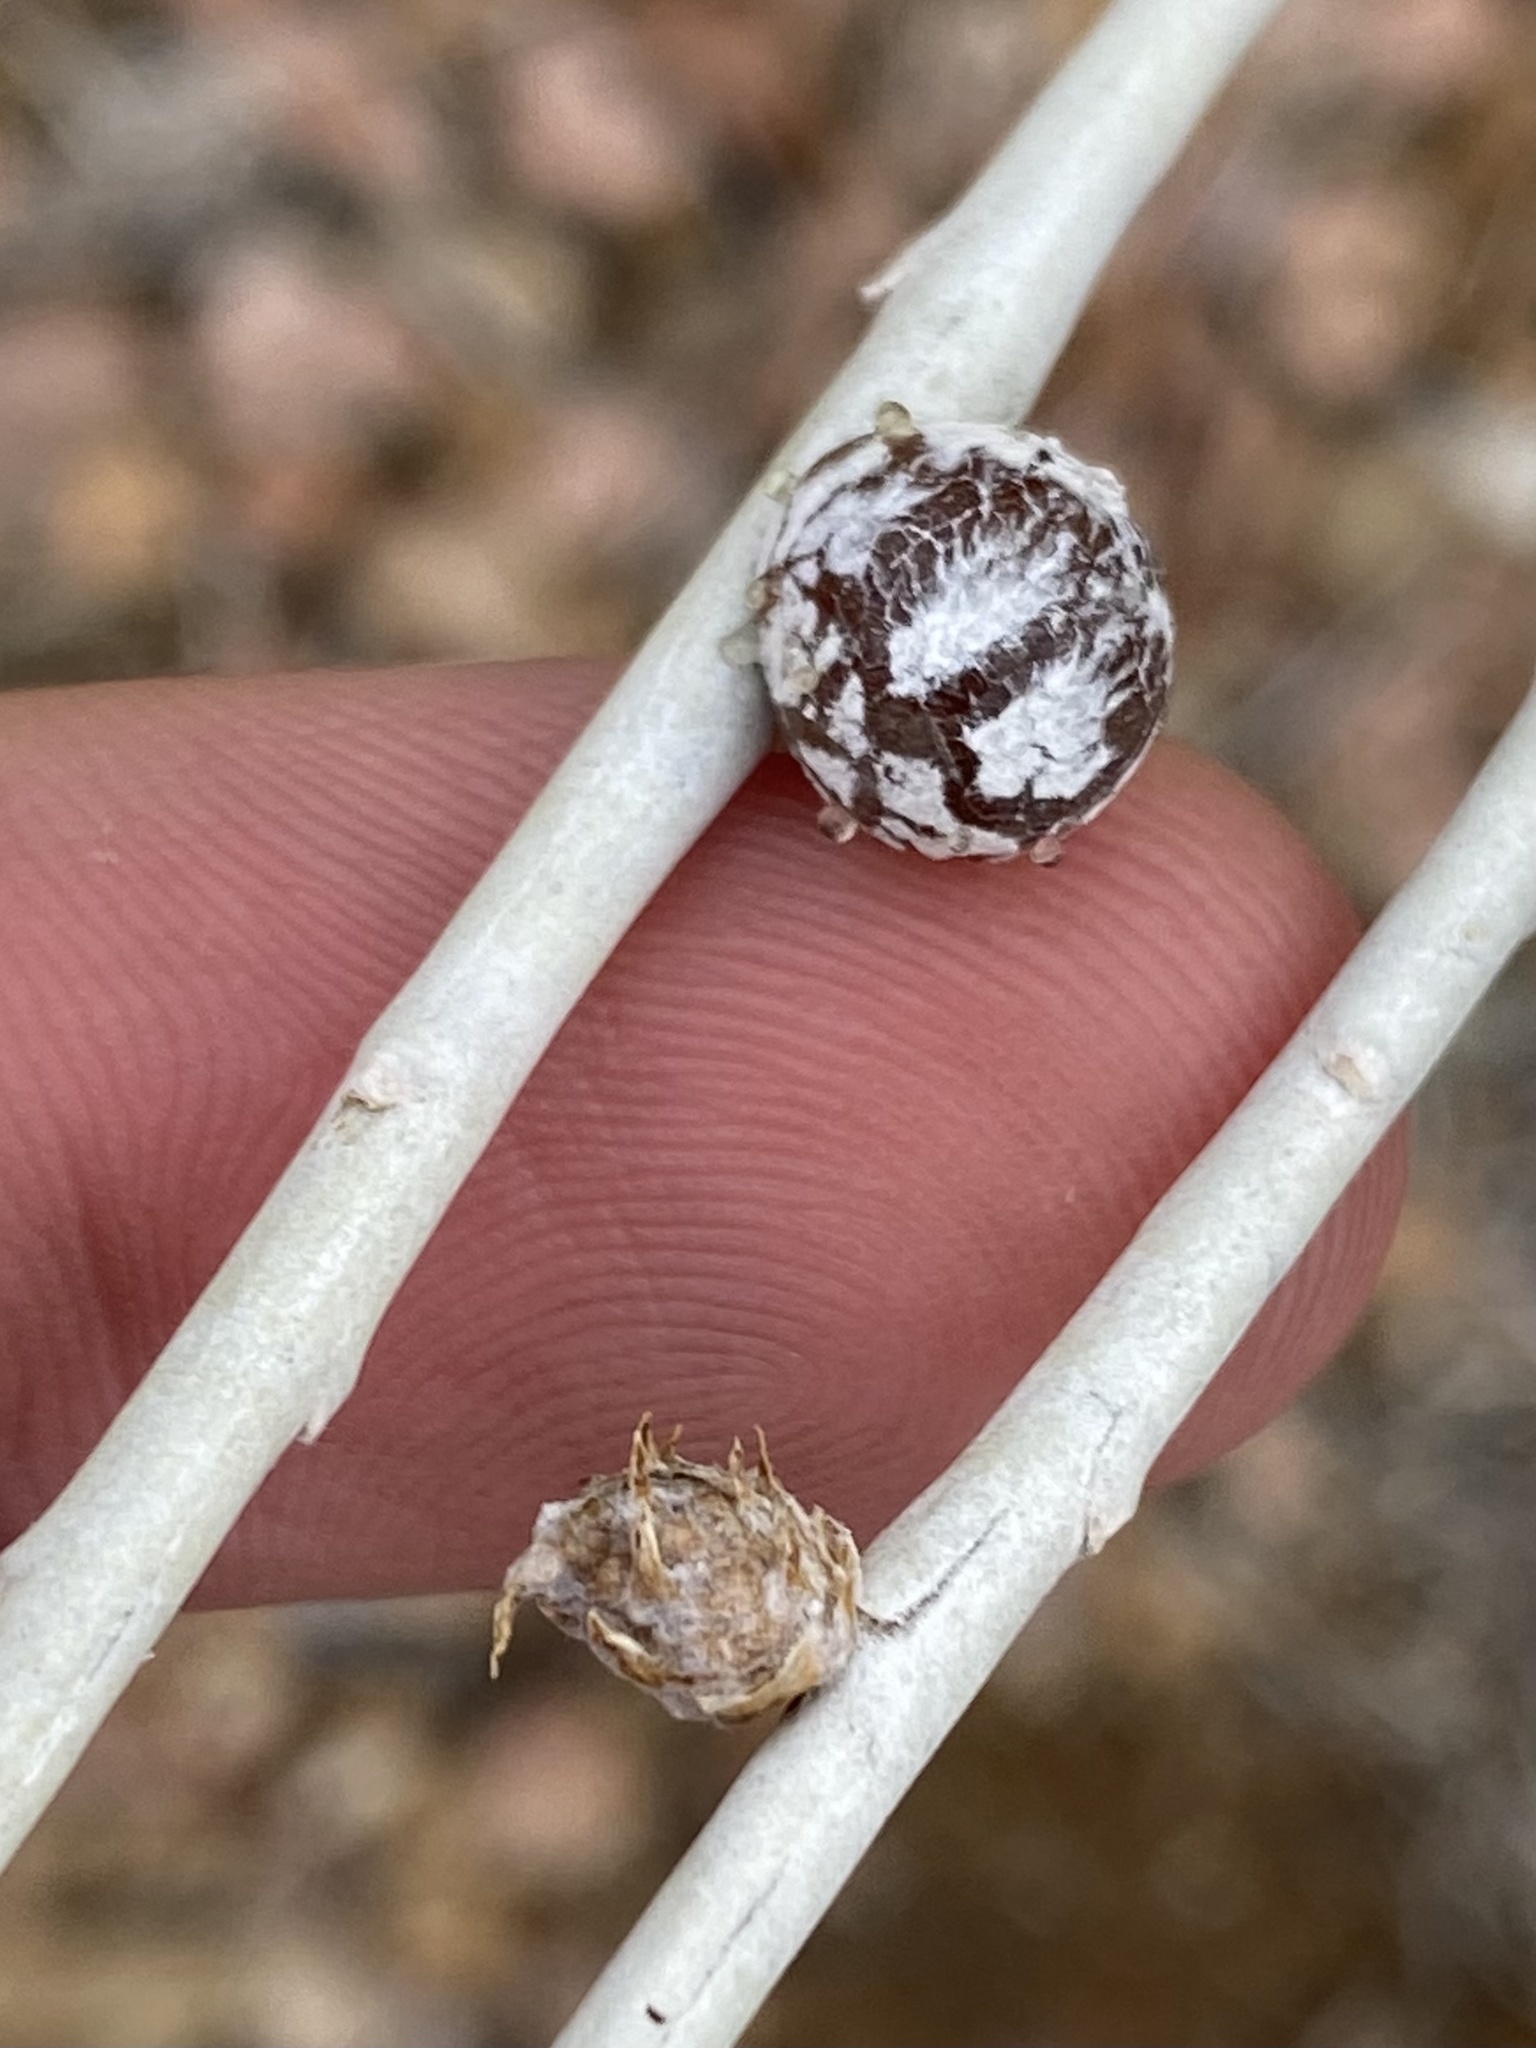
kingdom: Animalia
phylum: Arthropoda
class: Insecta
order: Diptera
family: Tephritidae
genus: Aciurina
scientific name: Aciurina trixa
